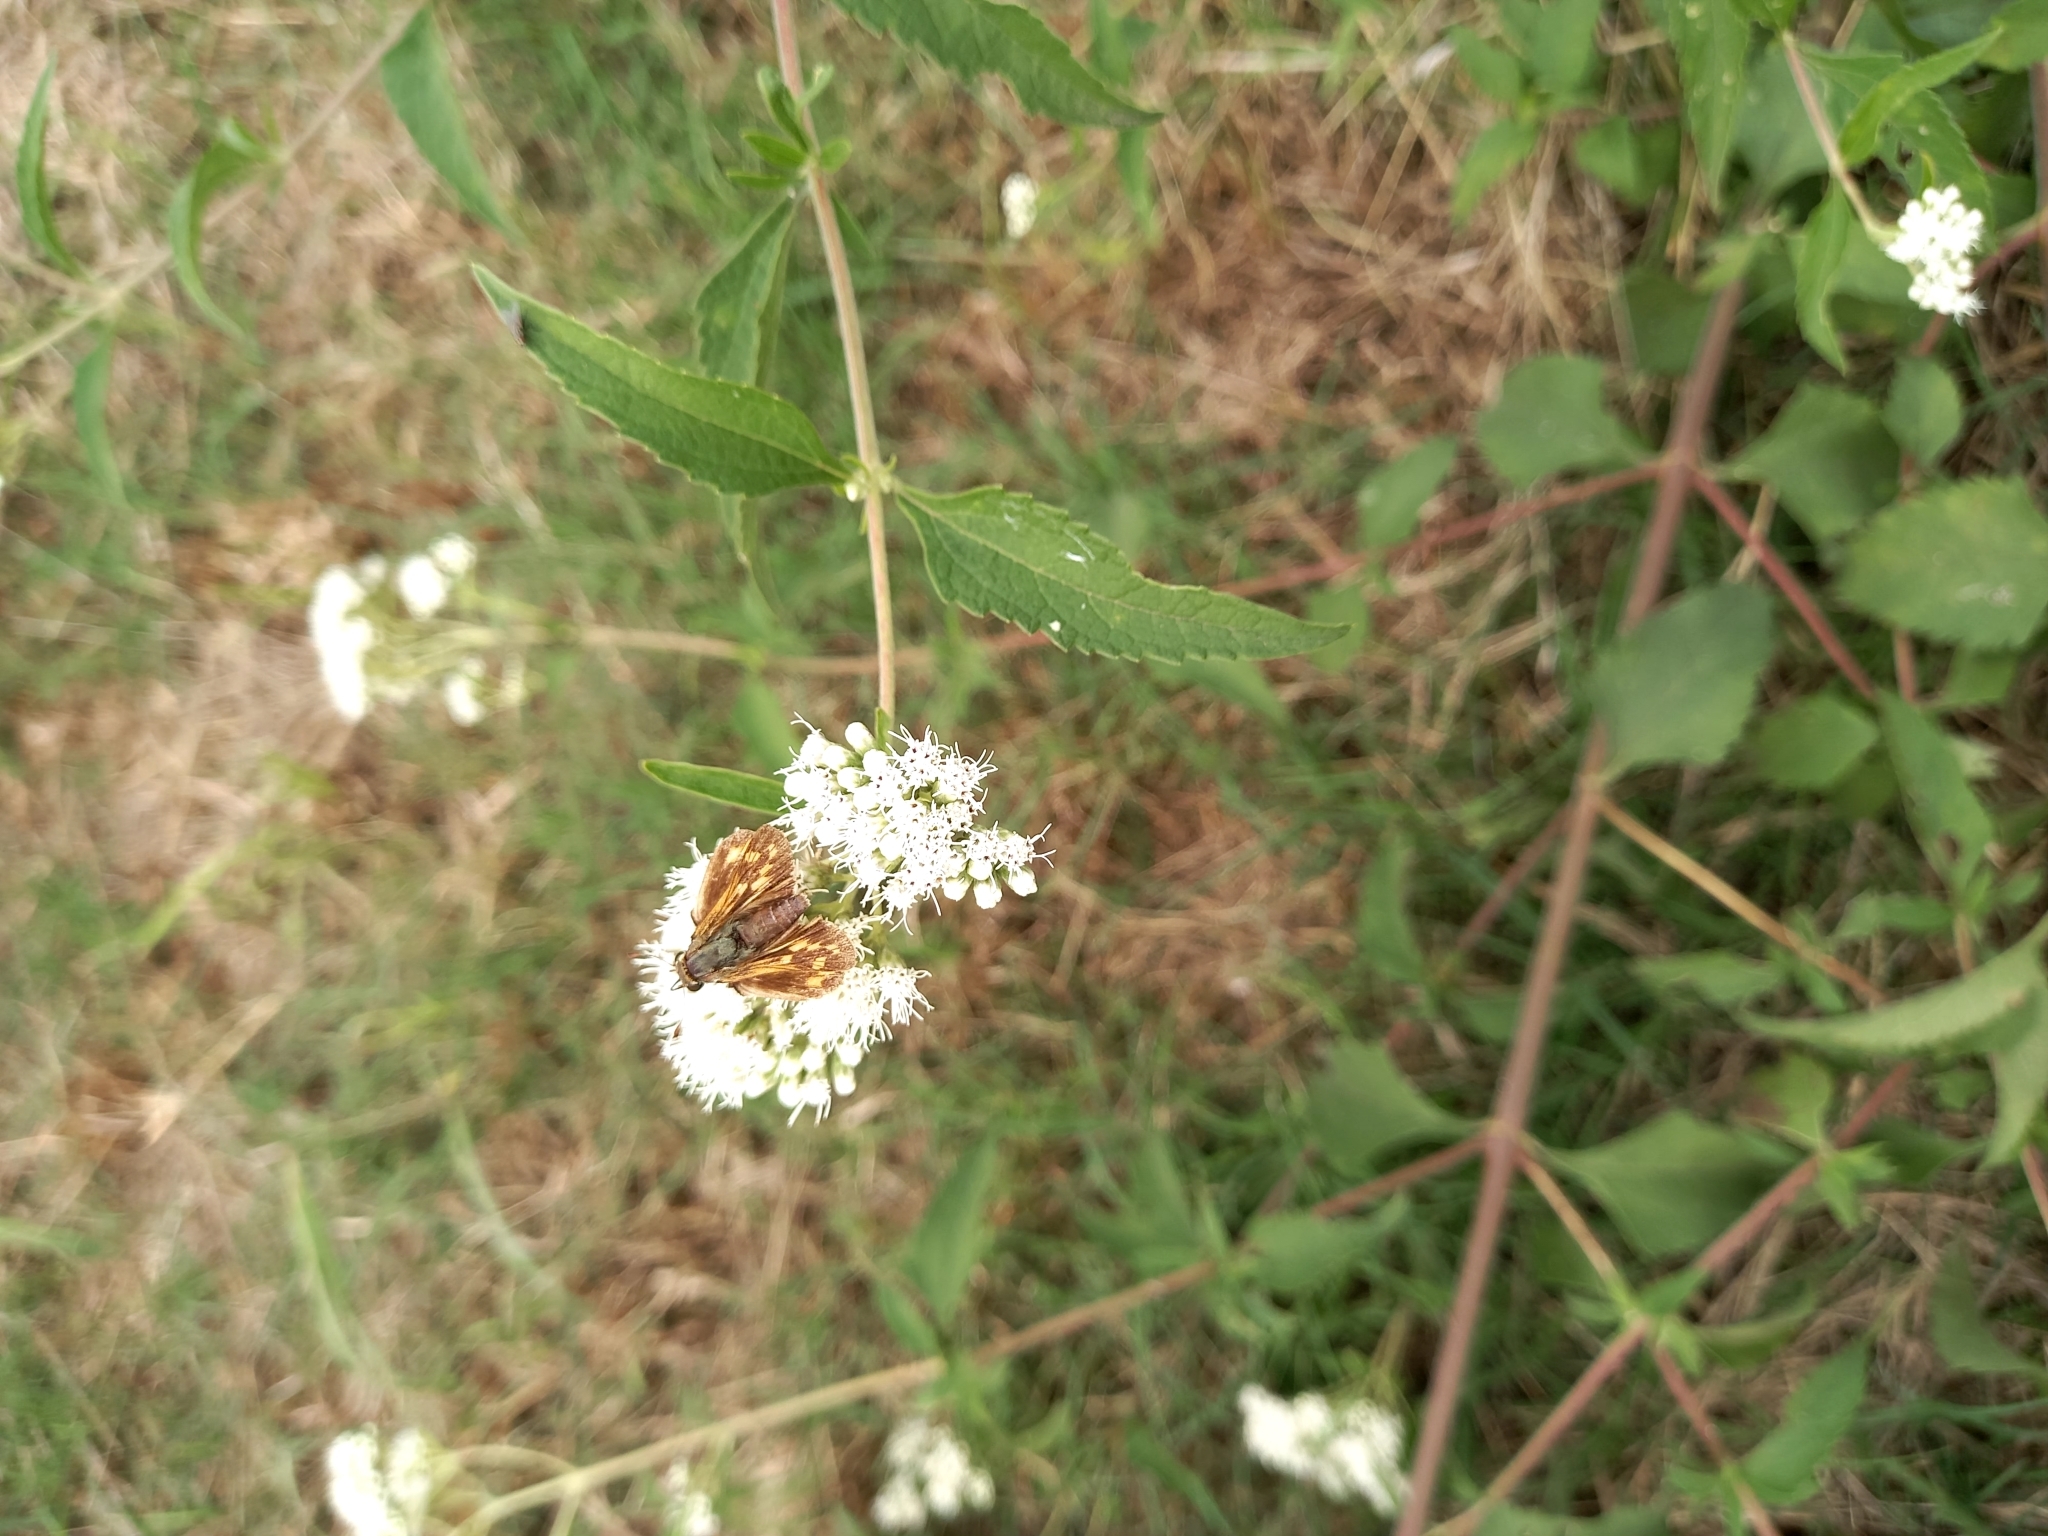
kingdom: Animalia
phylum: Arthropoda
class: Insecta
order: Lepidoptera
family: Hesperiidae
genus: Hylephila
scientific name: Hylephila phyleus
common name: Fiery skipper
